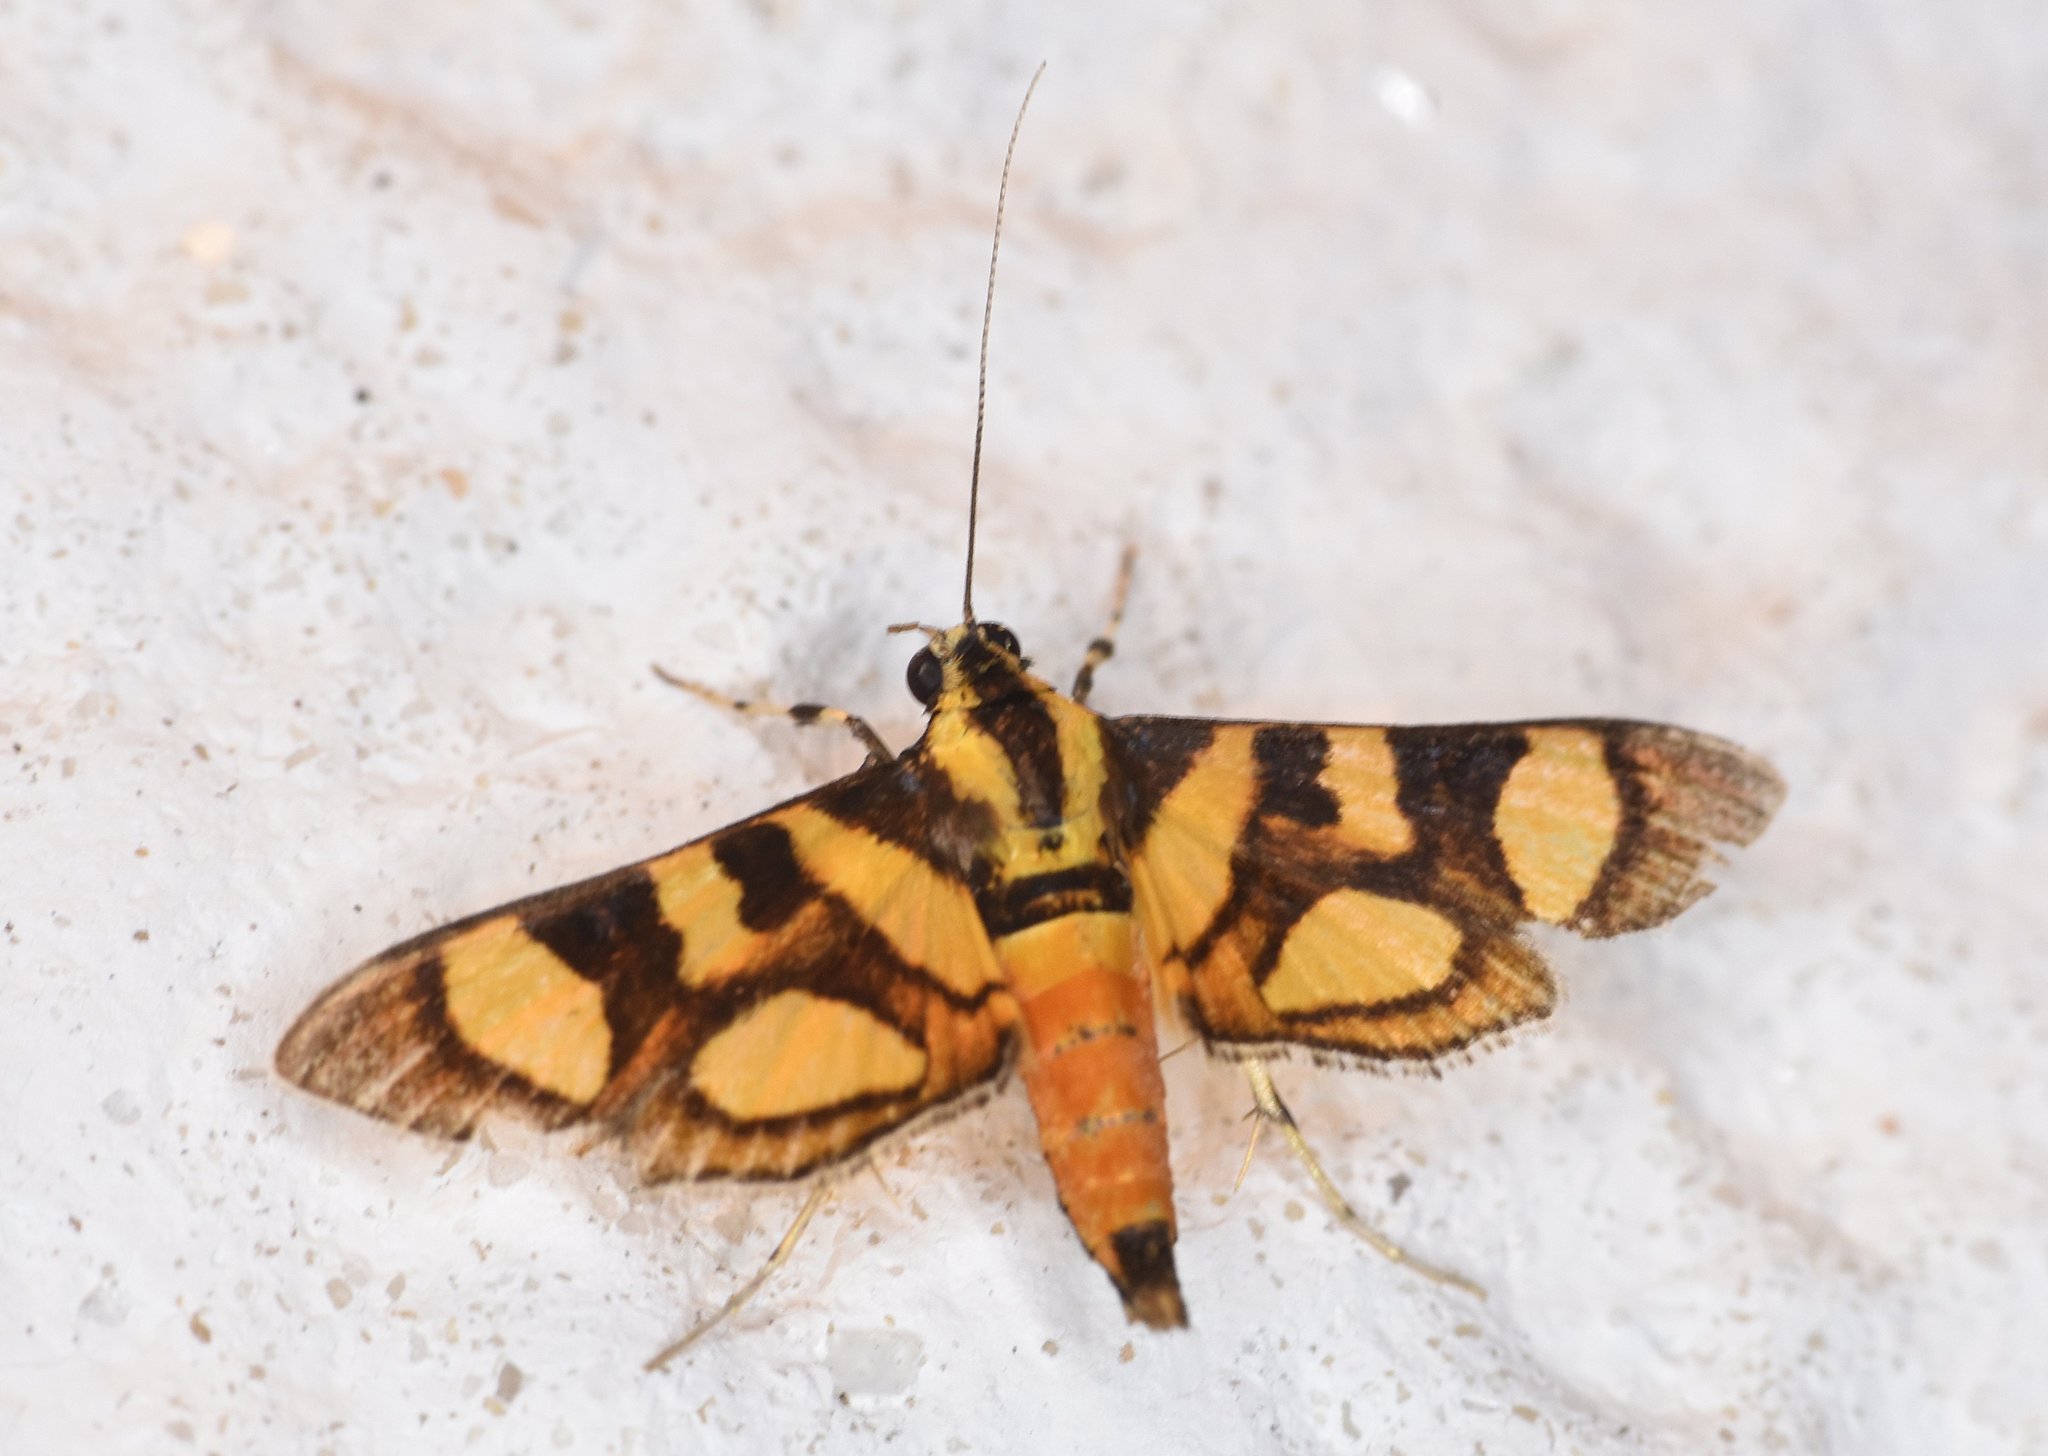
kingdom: Animalia
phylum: Arthropoda
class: Insecta
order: Lepidoptera
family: Crambidae
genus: Syngamia
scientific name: Syngamia florella
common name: Orange-spotted flower moth
